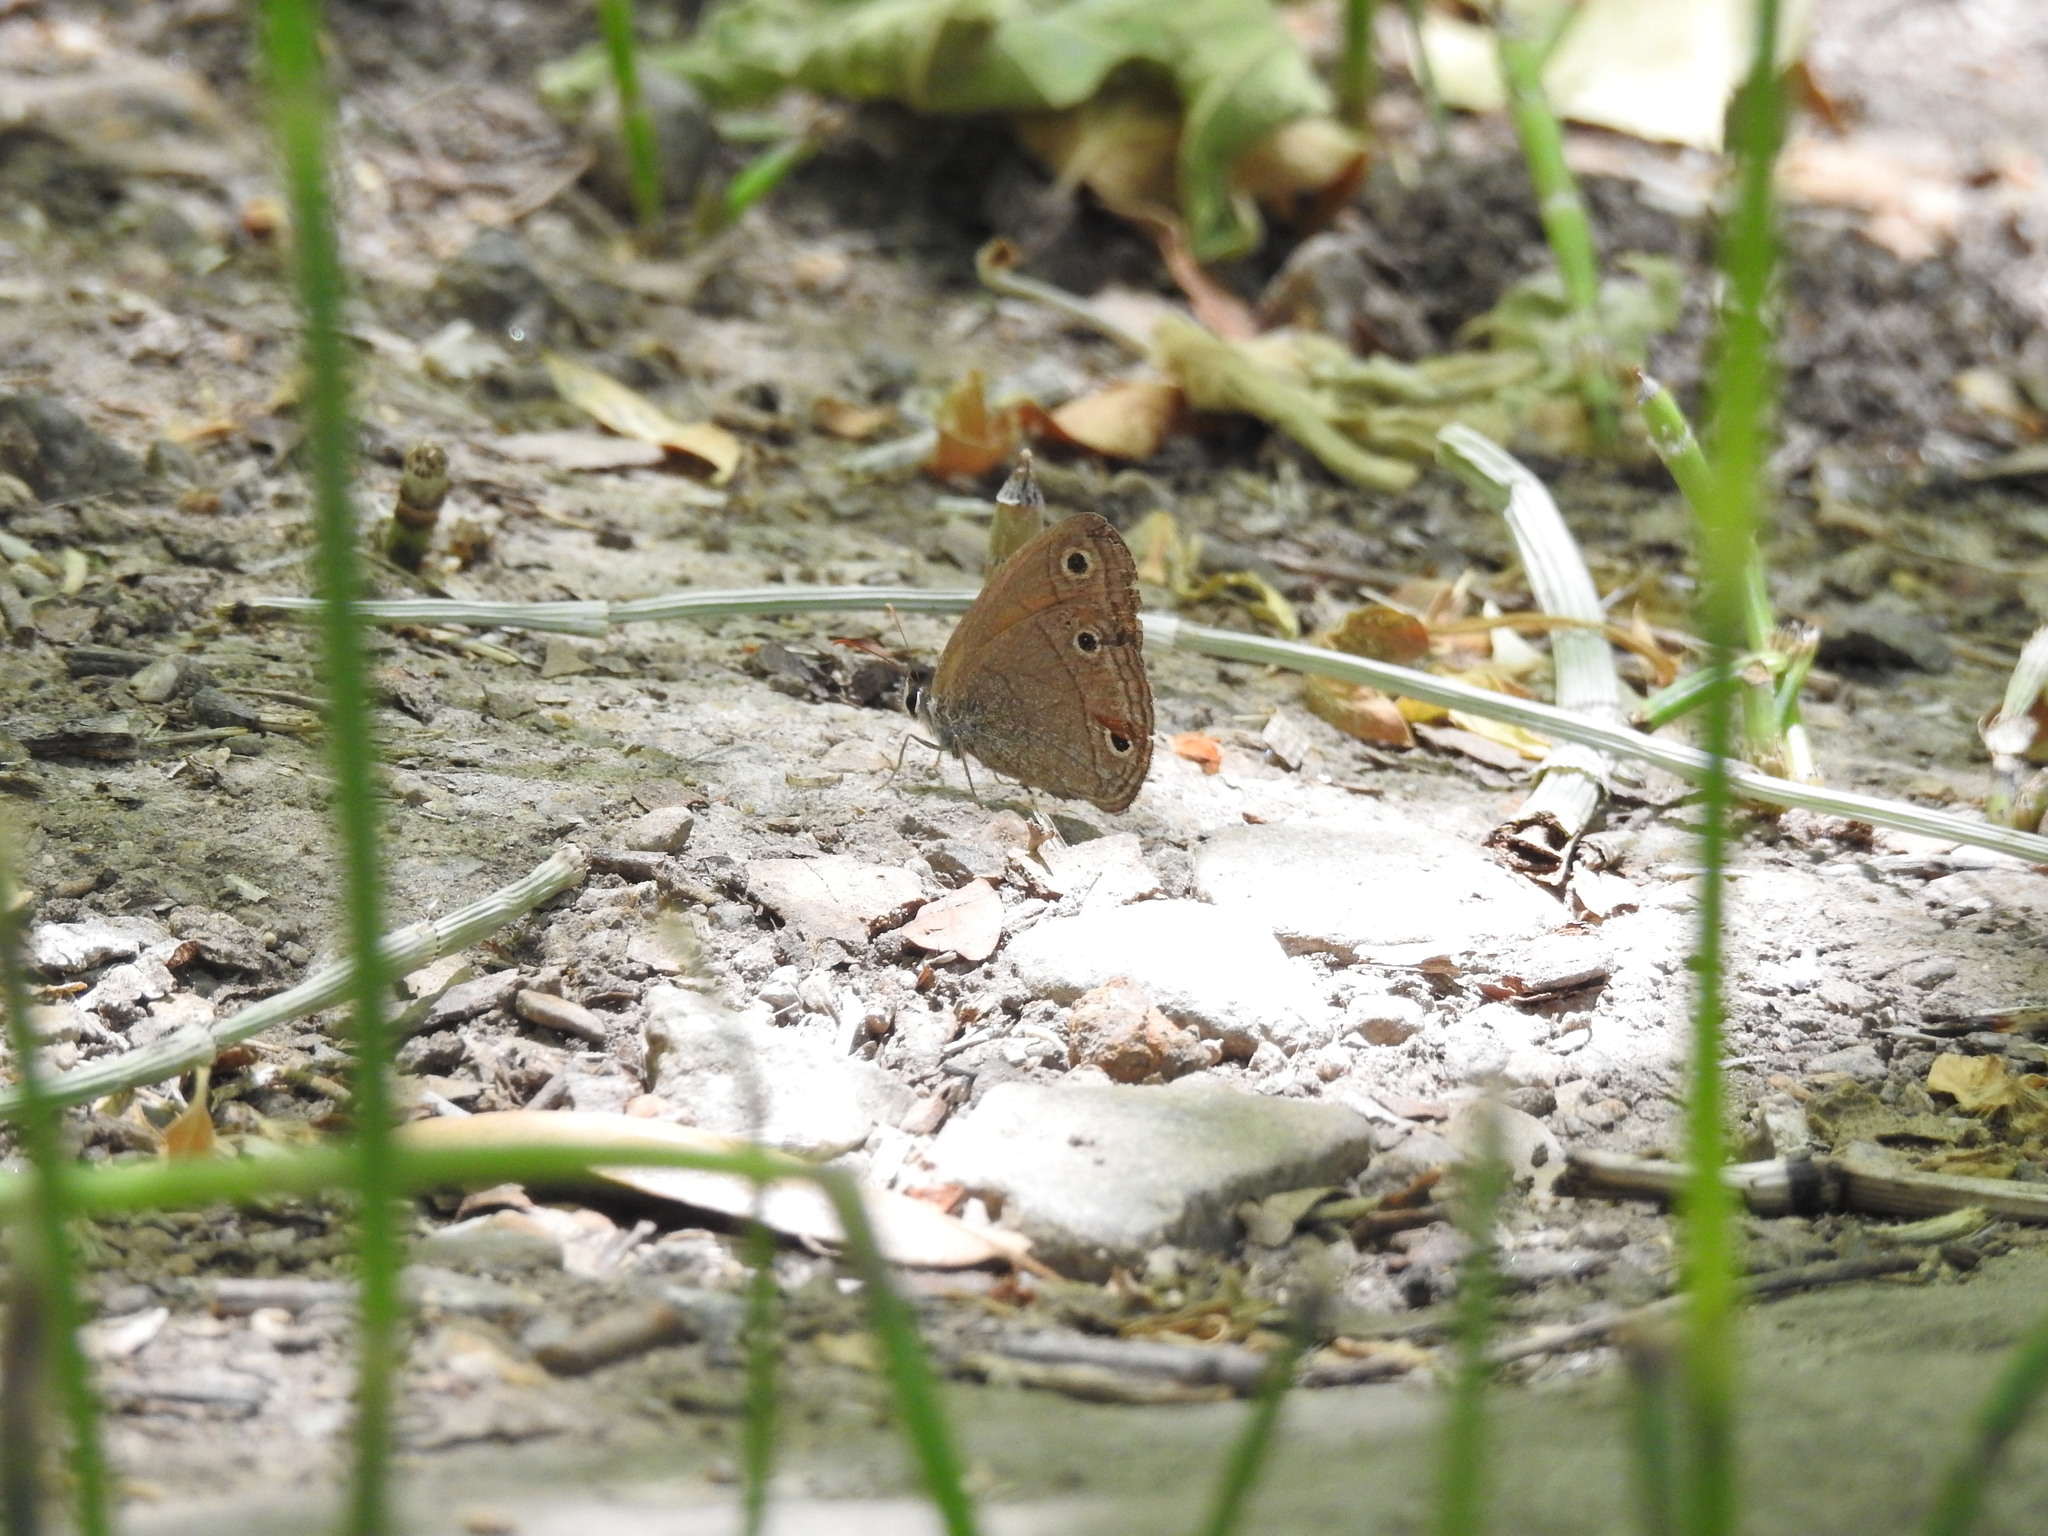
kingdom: Animalia
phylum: Arthropoda
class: Insecta
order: Lepidoptera
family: Nymphalidae
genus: Euptychia
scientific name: Euptychia
